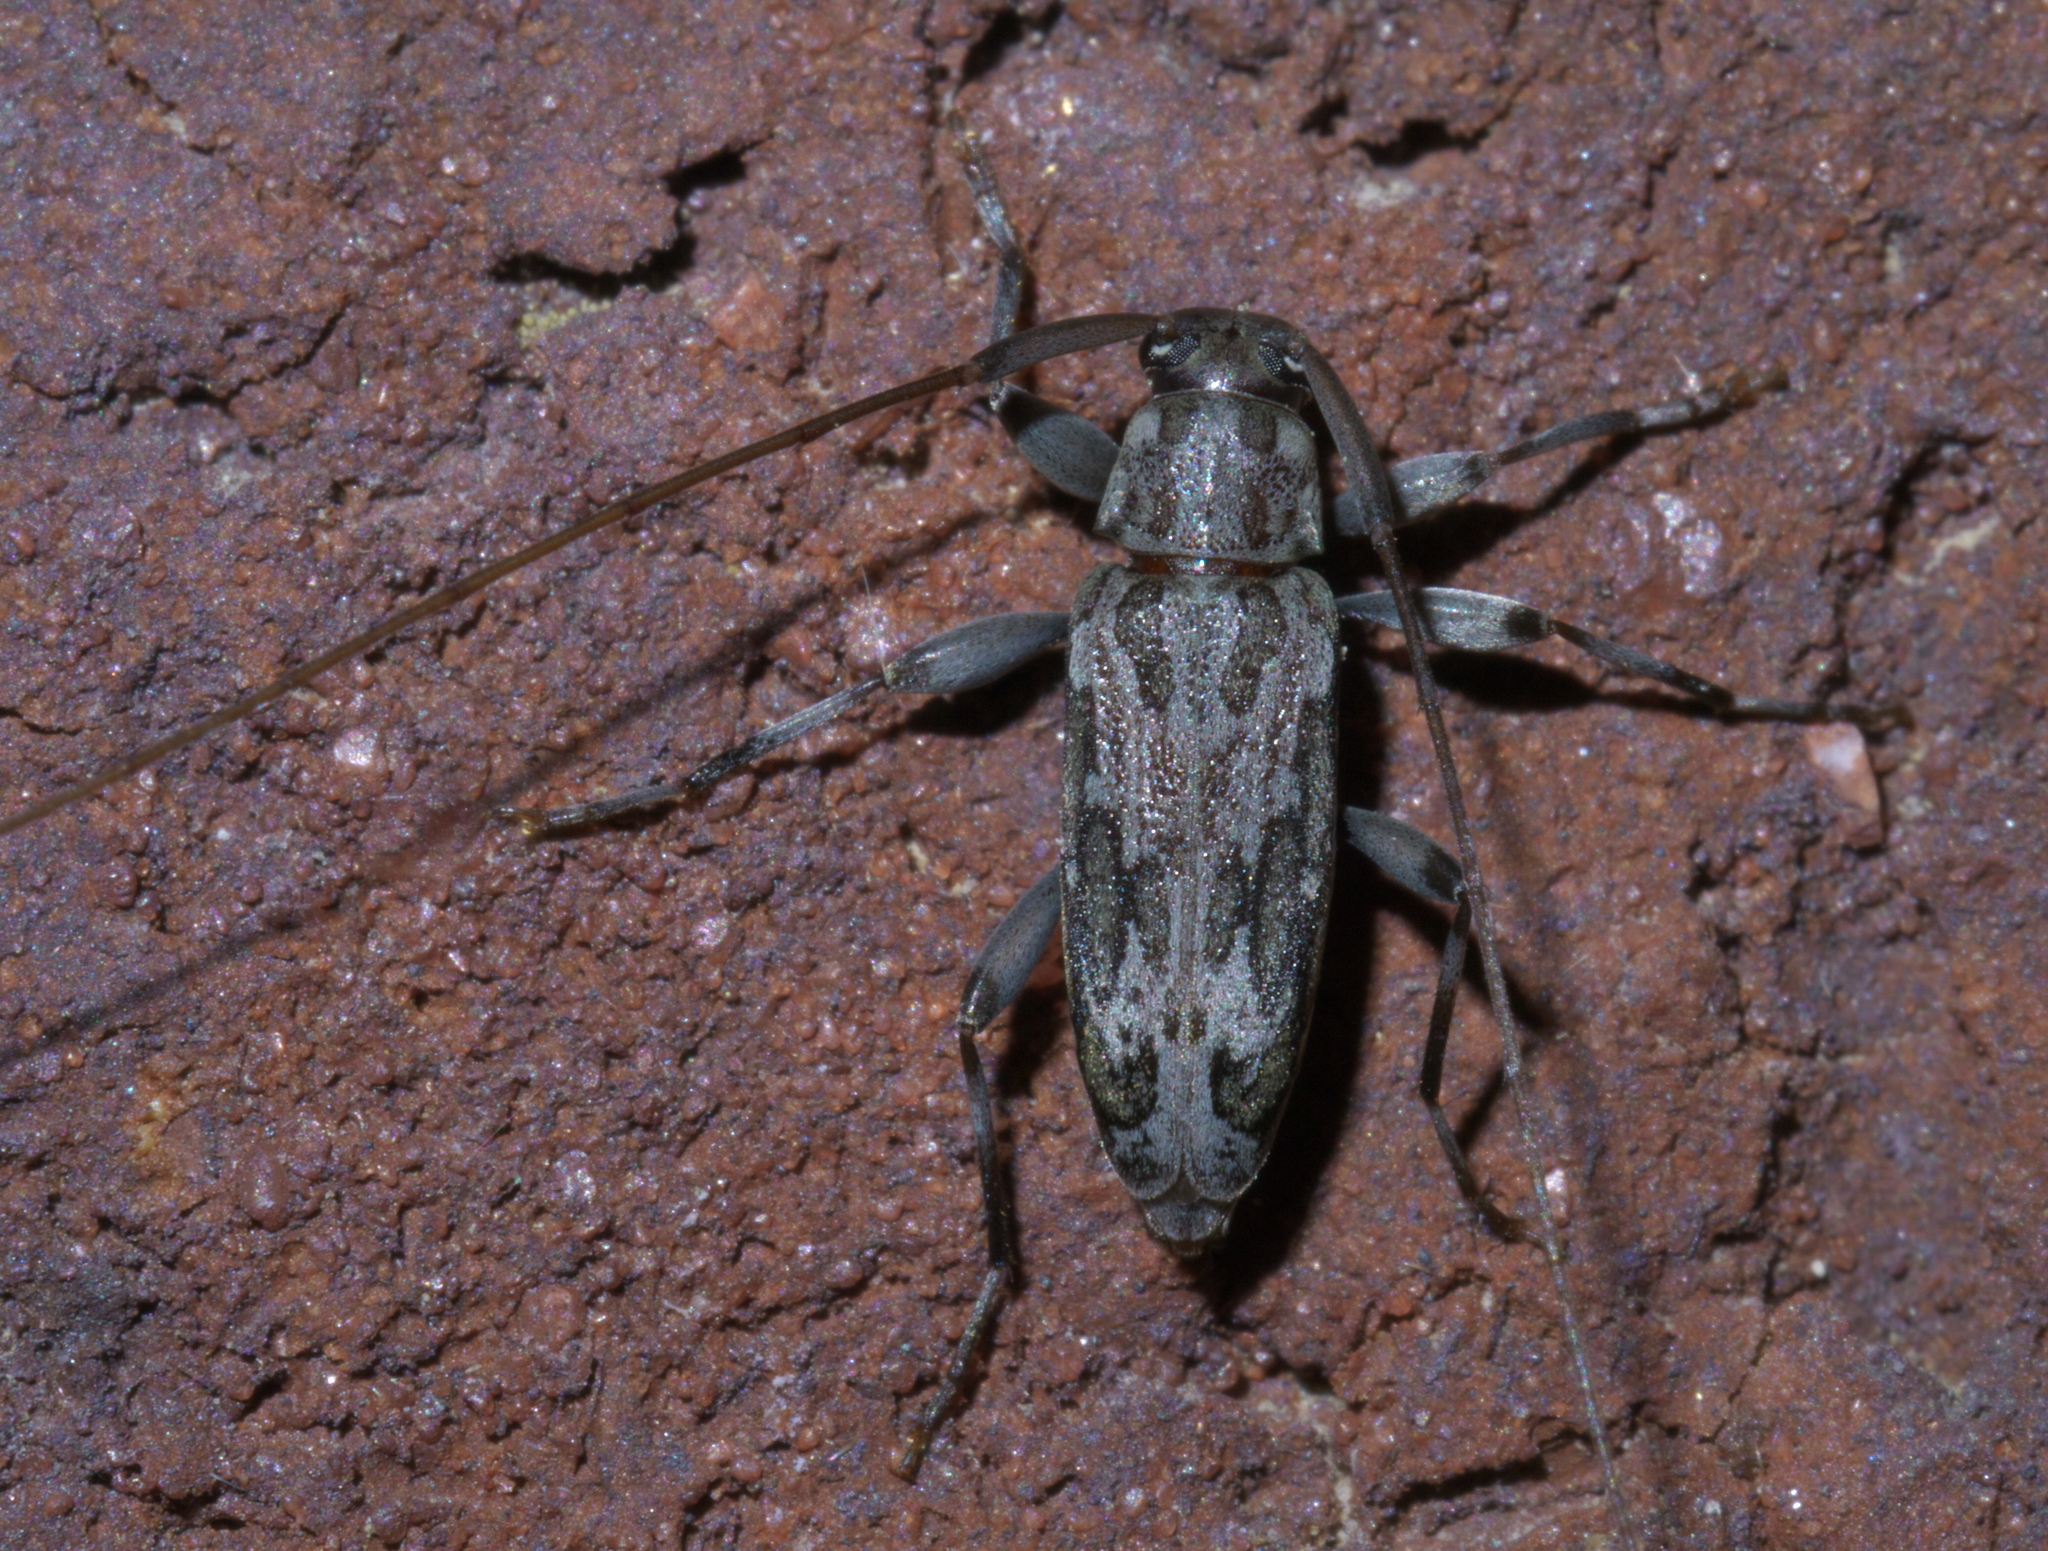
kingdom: Animalia
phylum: Arthropoda
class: Insecta
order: Coleoptera
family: Cerambycidae
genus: Lepturges
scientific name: Lepturges confluens
